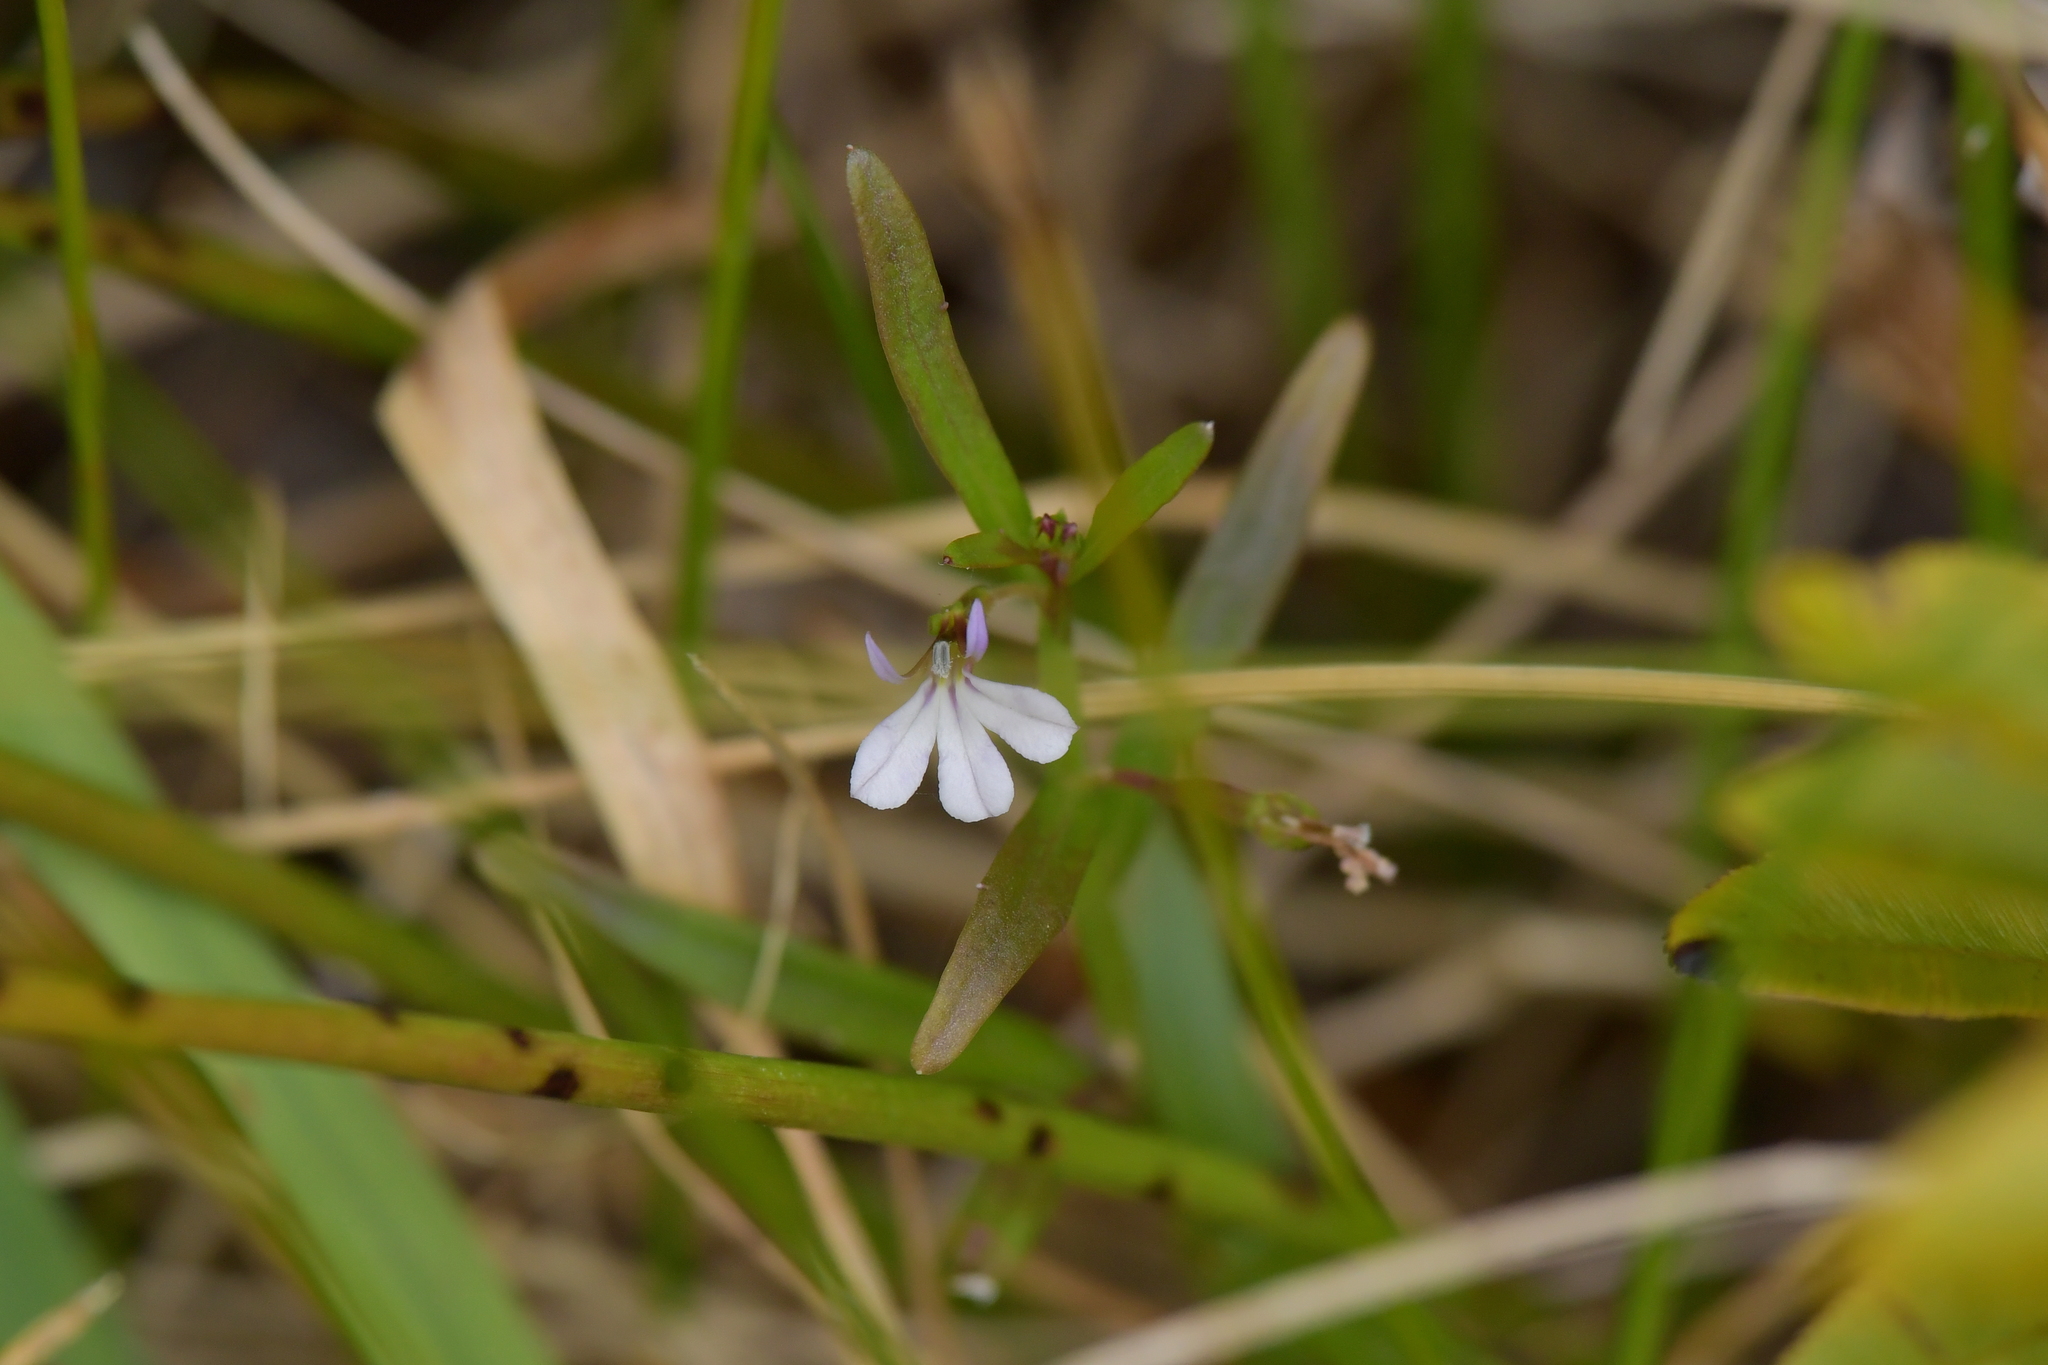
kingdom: Plantae
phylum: Tracheophyta
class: Magnoliopsida
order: Asterales
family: Campanulaceae
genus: Lobelia
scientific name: Lobelia anceps
